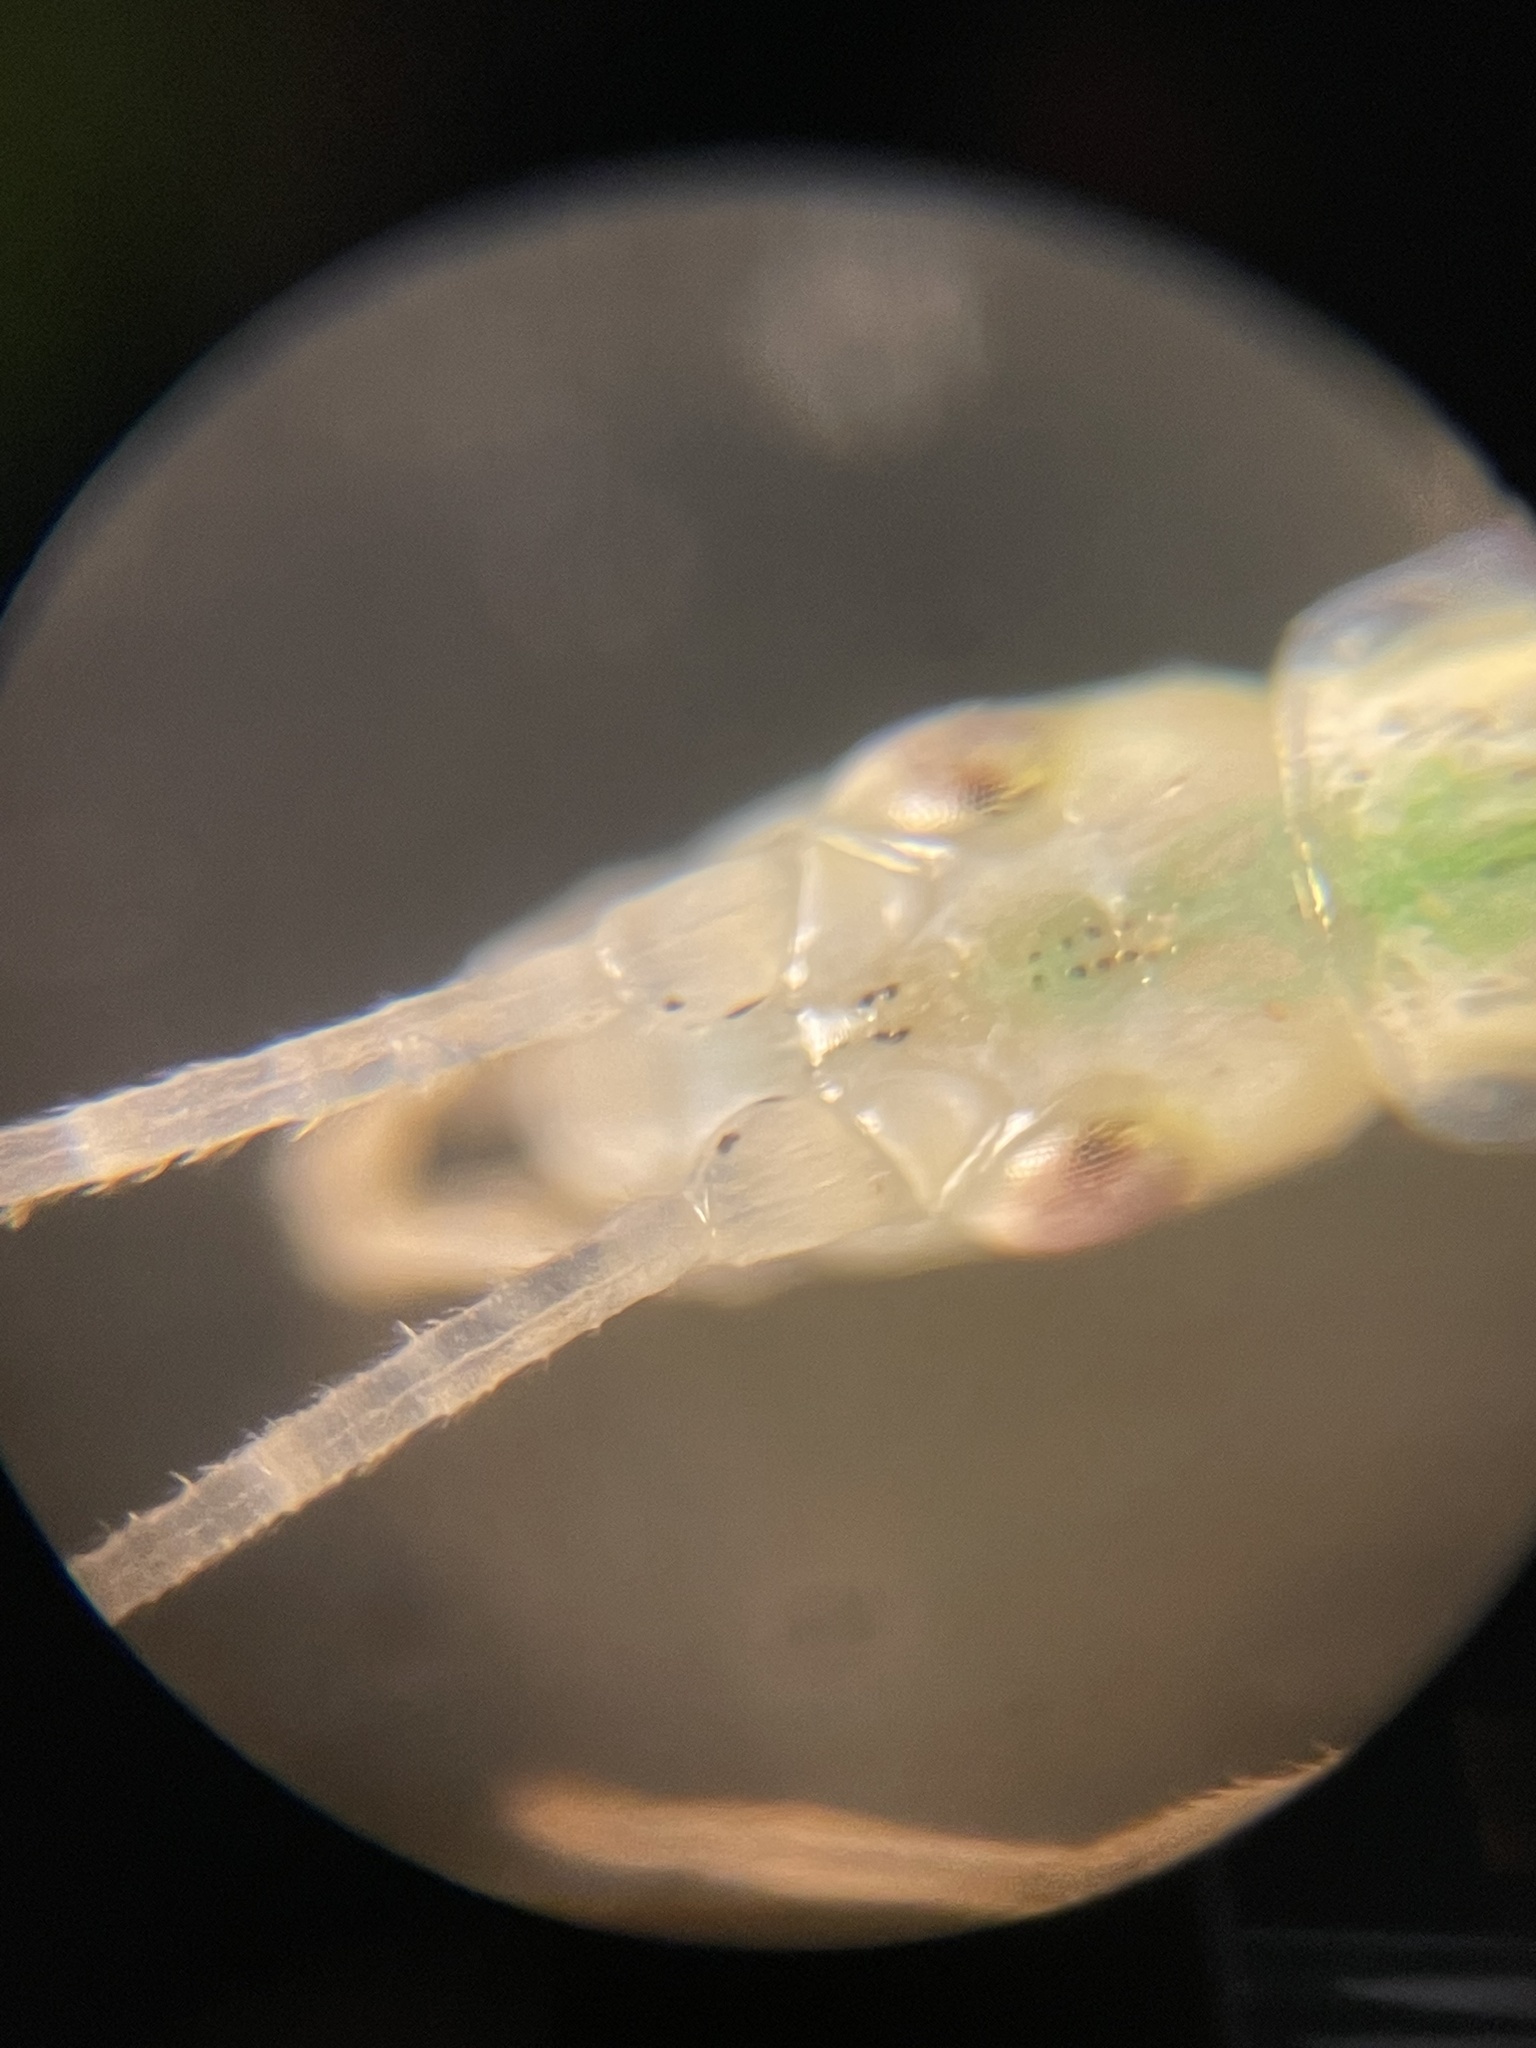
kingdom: Animalia
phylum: Arthropoda
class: Insecta
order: Orthoptera
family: Gryllidae
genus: Oecanthus
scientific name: Oecanthus niveus
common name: Narrow-winged tree cricket
